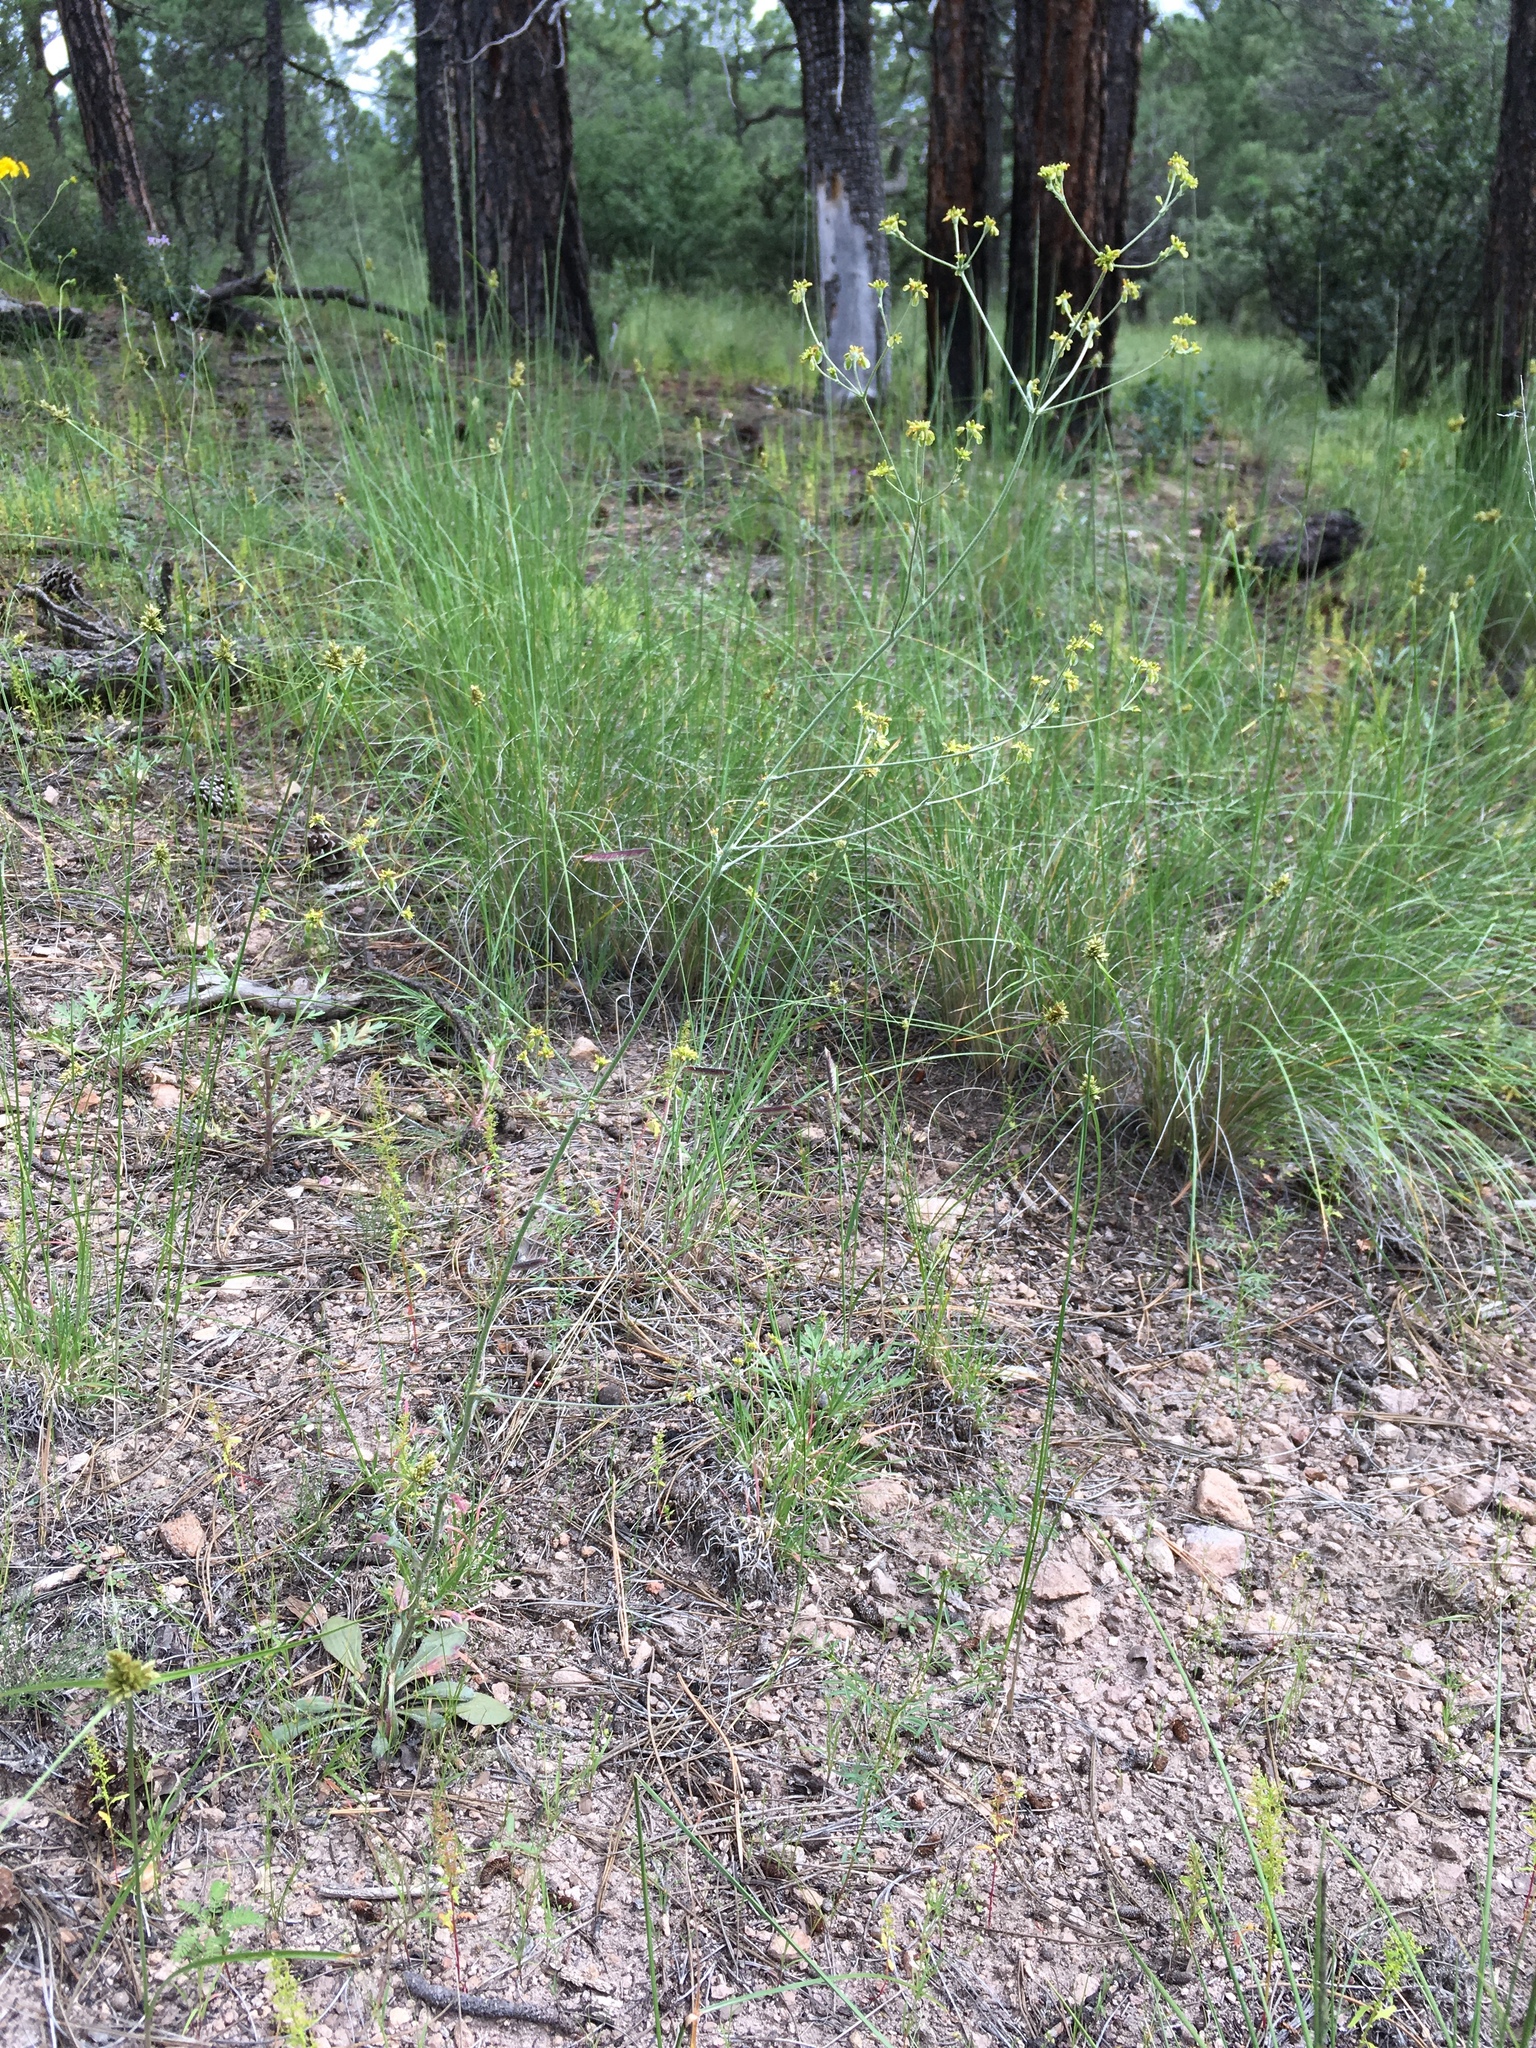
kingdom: Plantae
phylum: Tracheophyta
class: Magnoliopsida
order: Caryophyllales
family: Polygonaceae
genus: Eriogonum
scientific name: Eriogonum alatum
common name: Winged eriogonum
